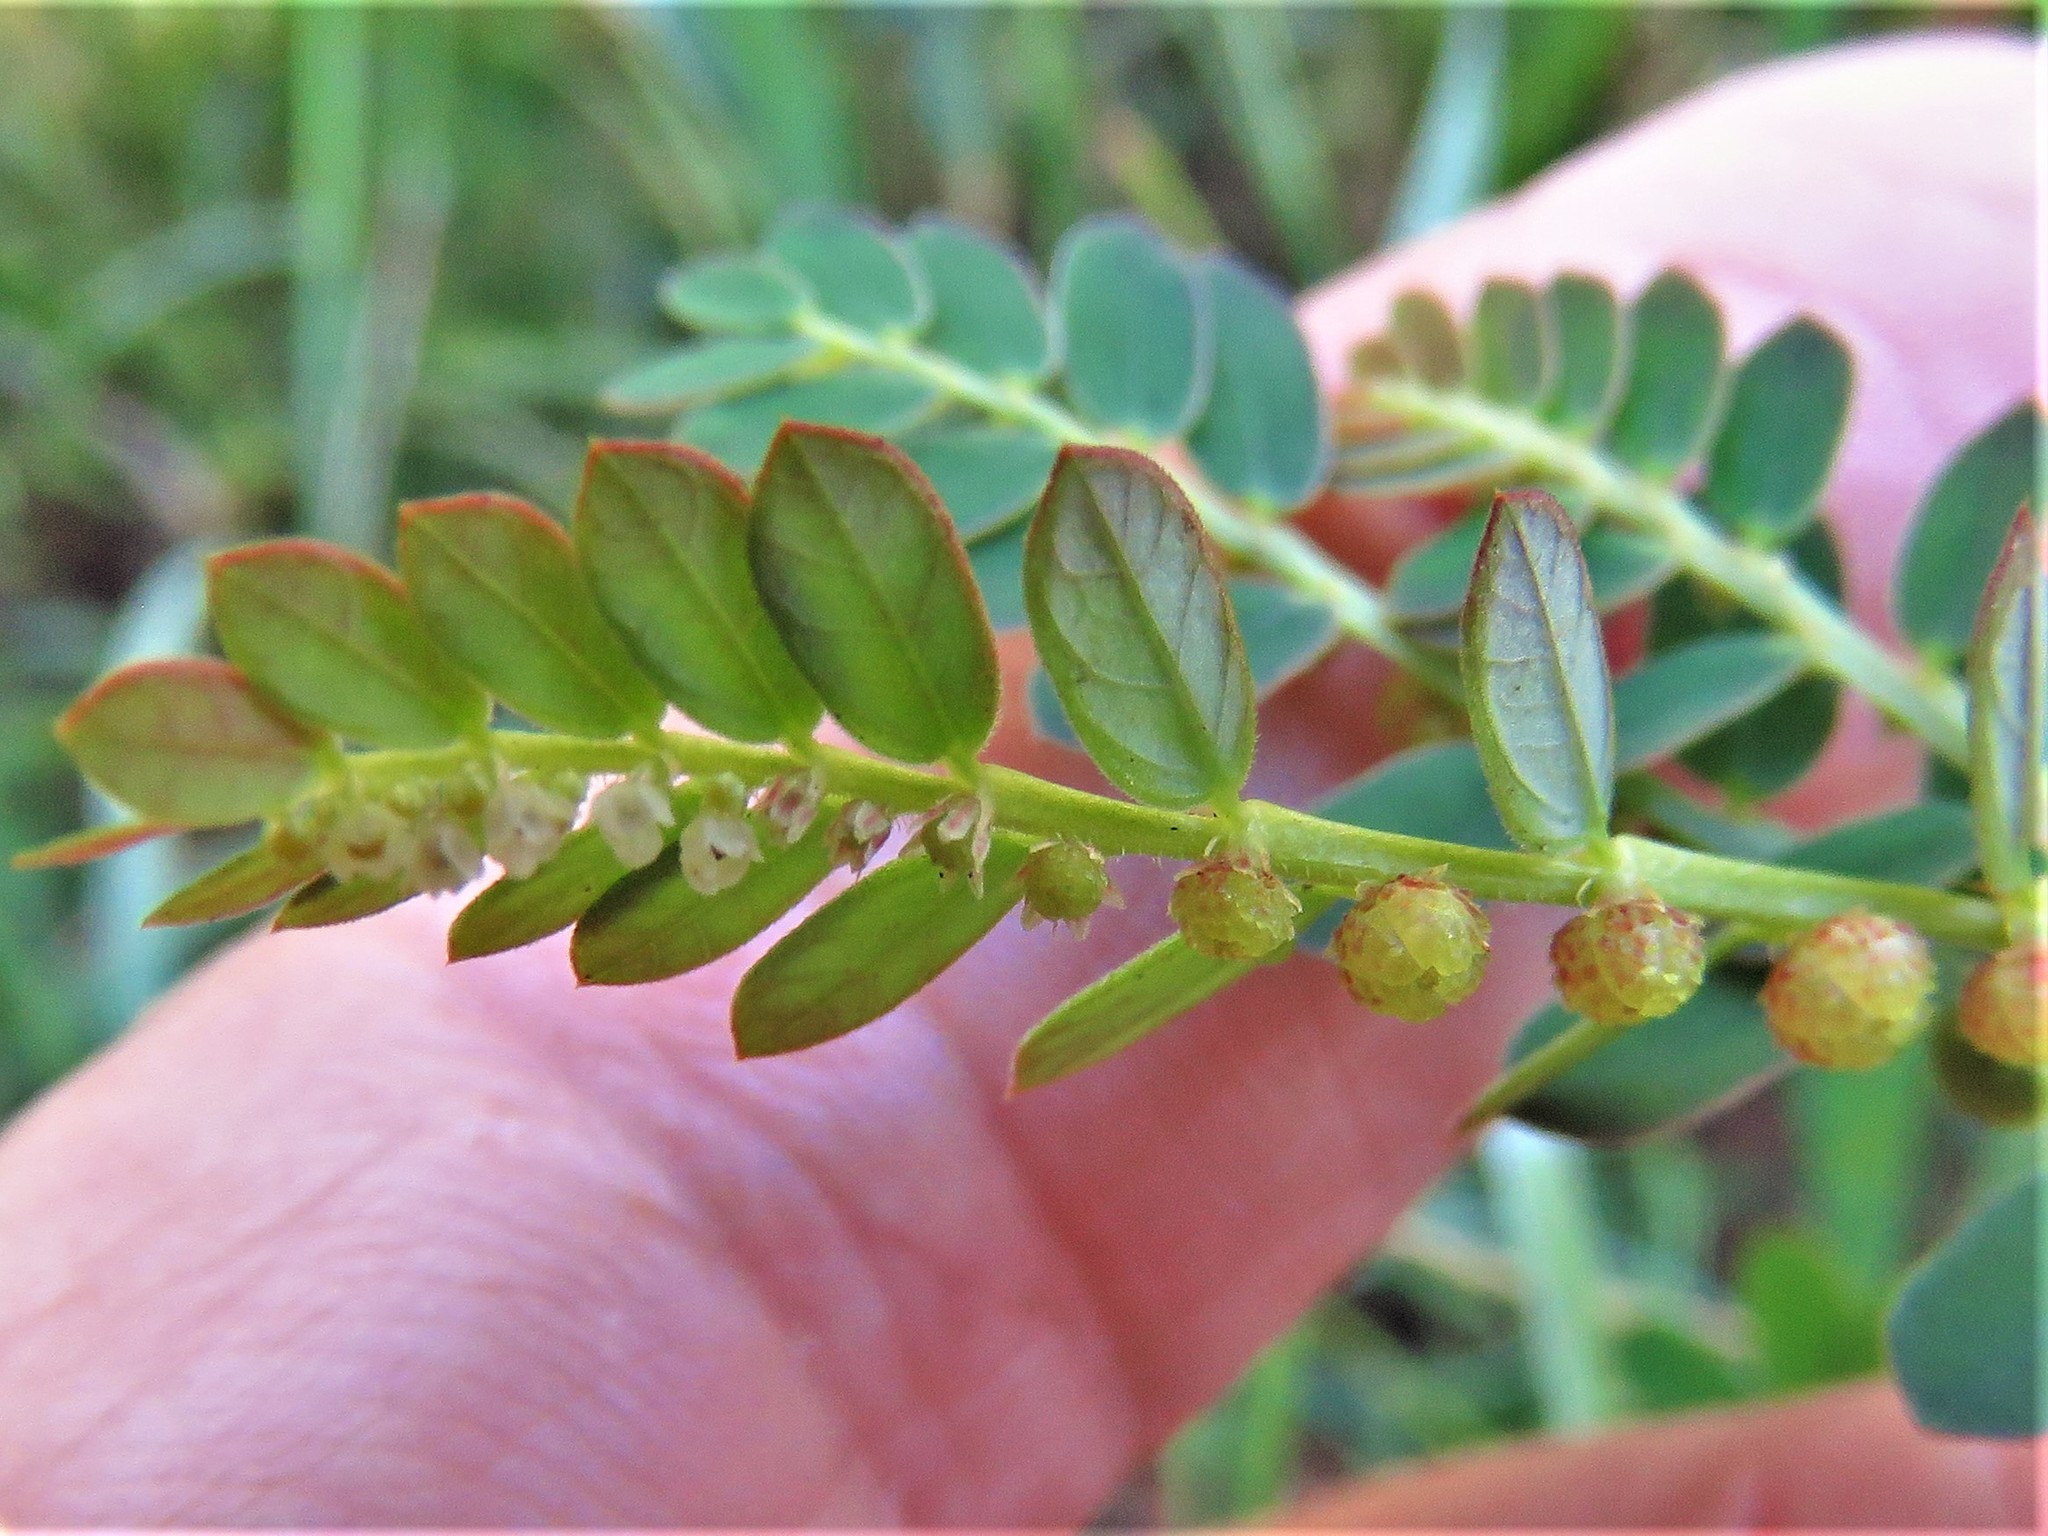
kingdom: Plantae
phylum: Tracheophyta
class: Magnoliopsida
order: Malpighiales
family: Phyllanthaceae
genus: Phyllanthus
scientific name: Phyllanthus urinaria
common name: Chamber bitter
